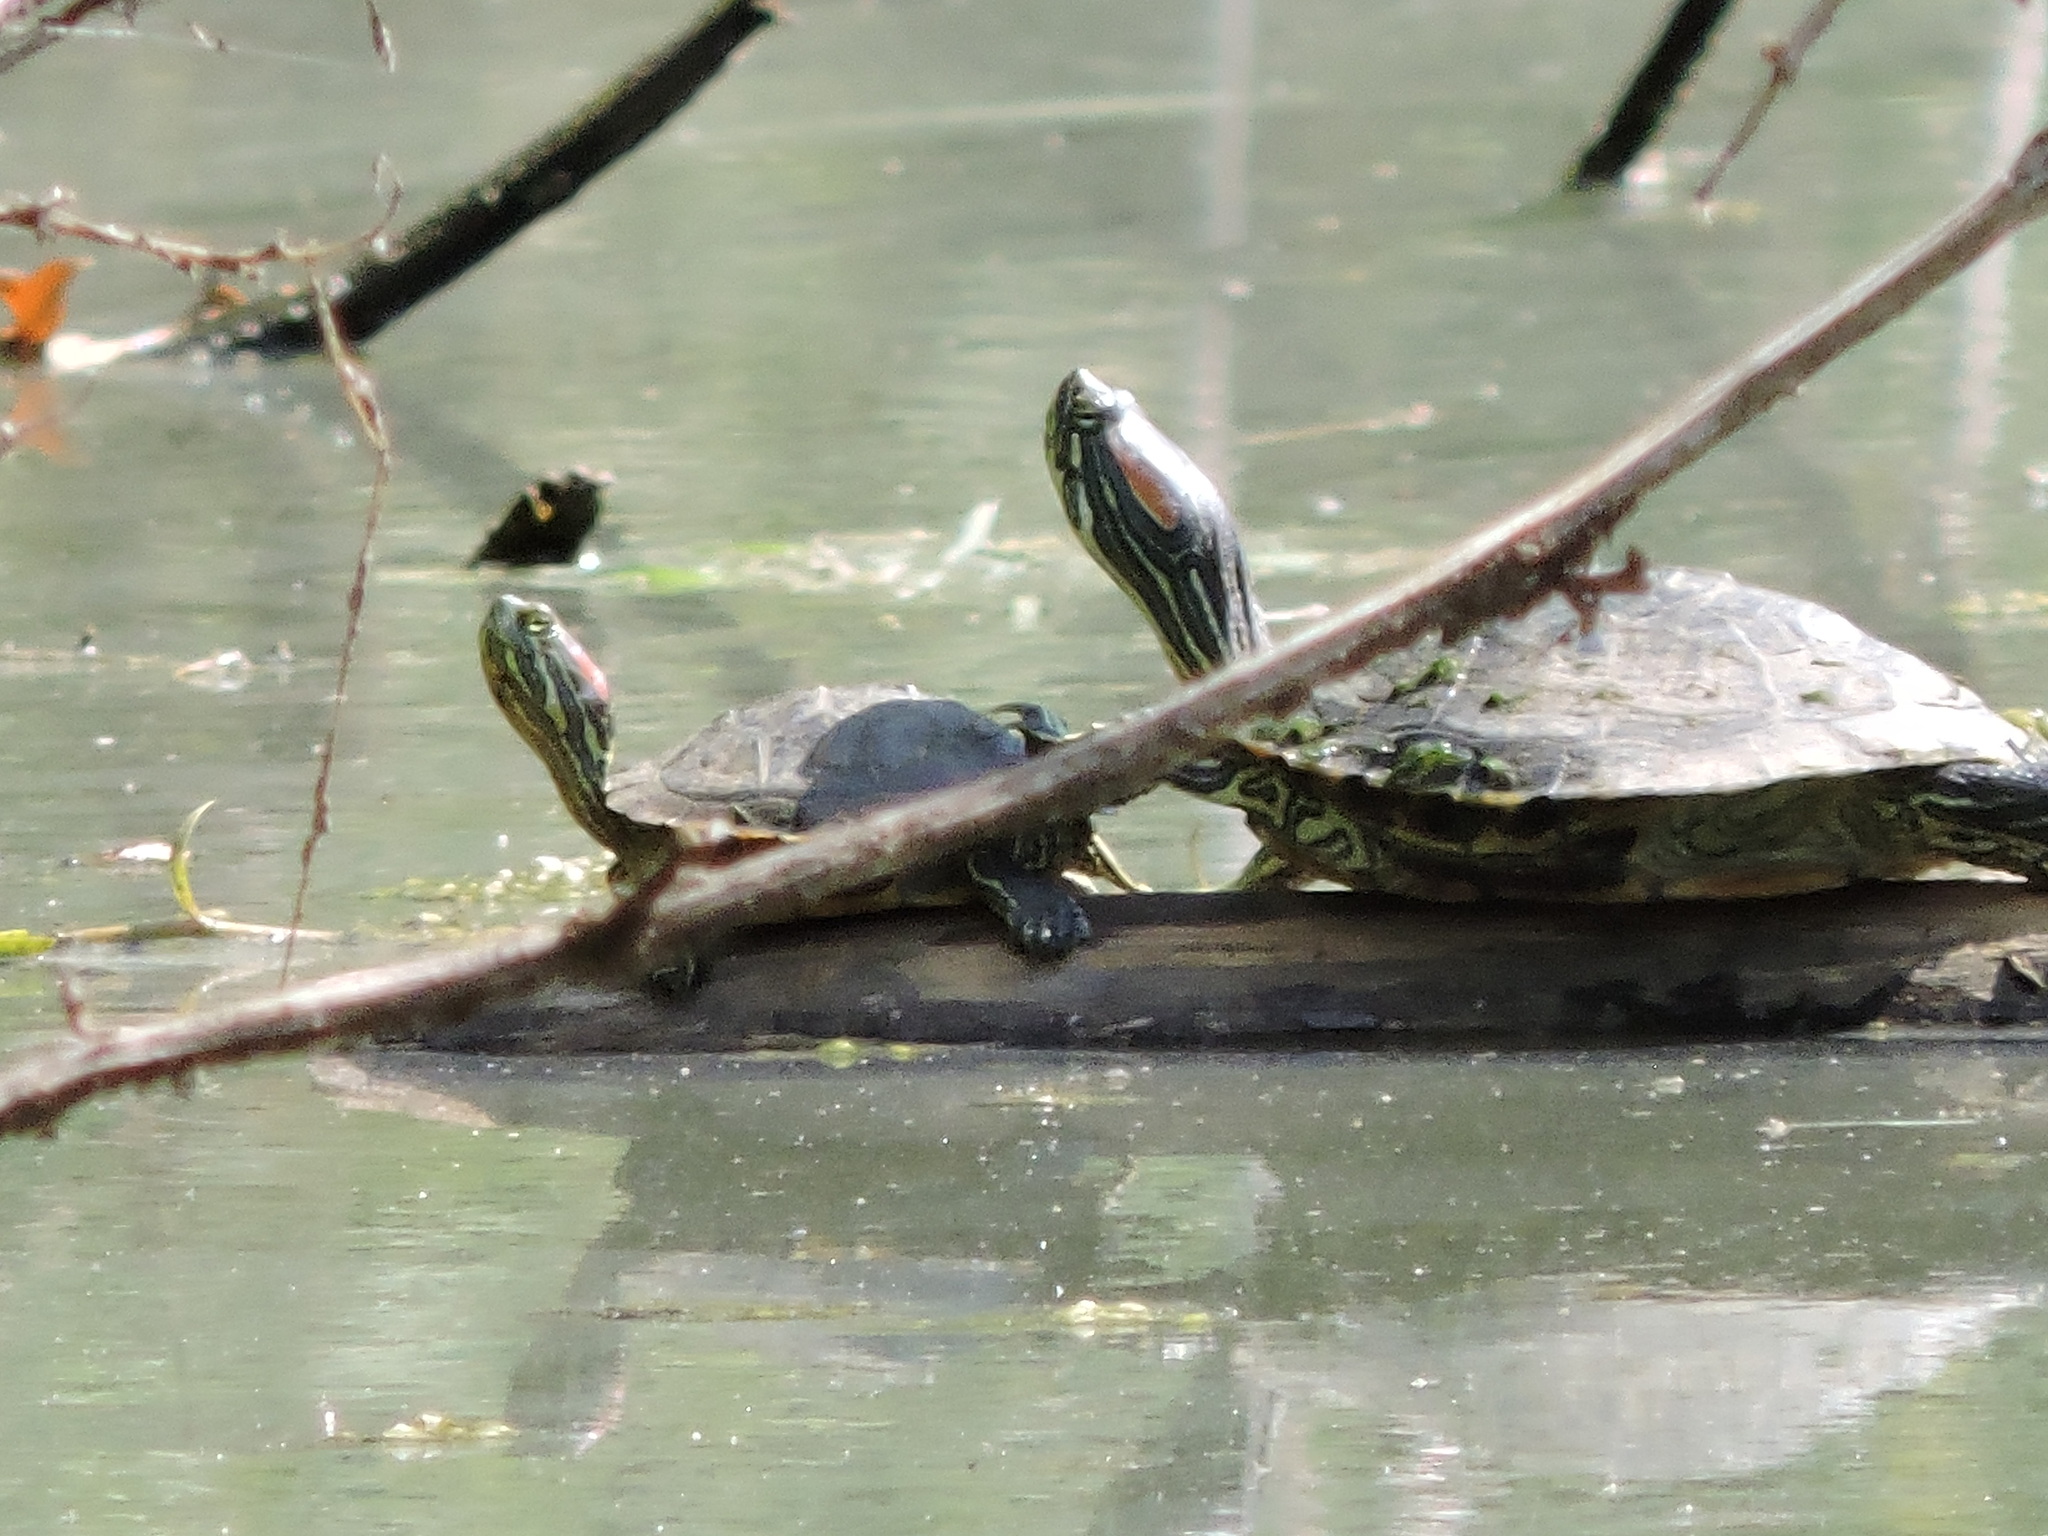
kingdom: Animalia
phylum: Chordata
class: Testudines
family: Emydidae
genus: Trachemys
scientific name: Trachemys scripta
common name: Slider
